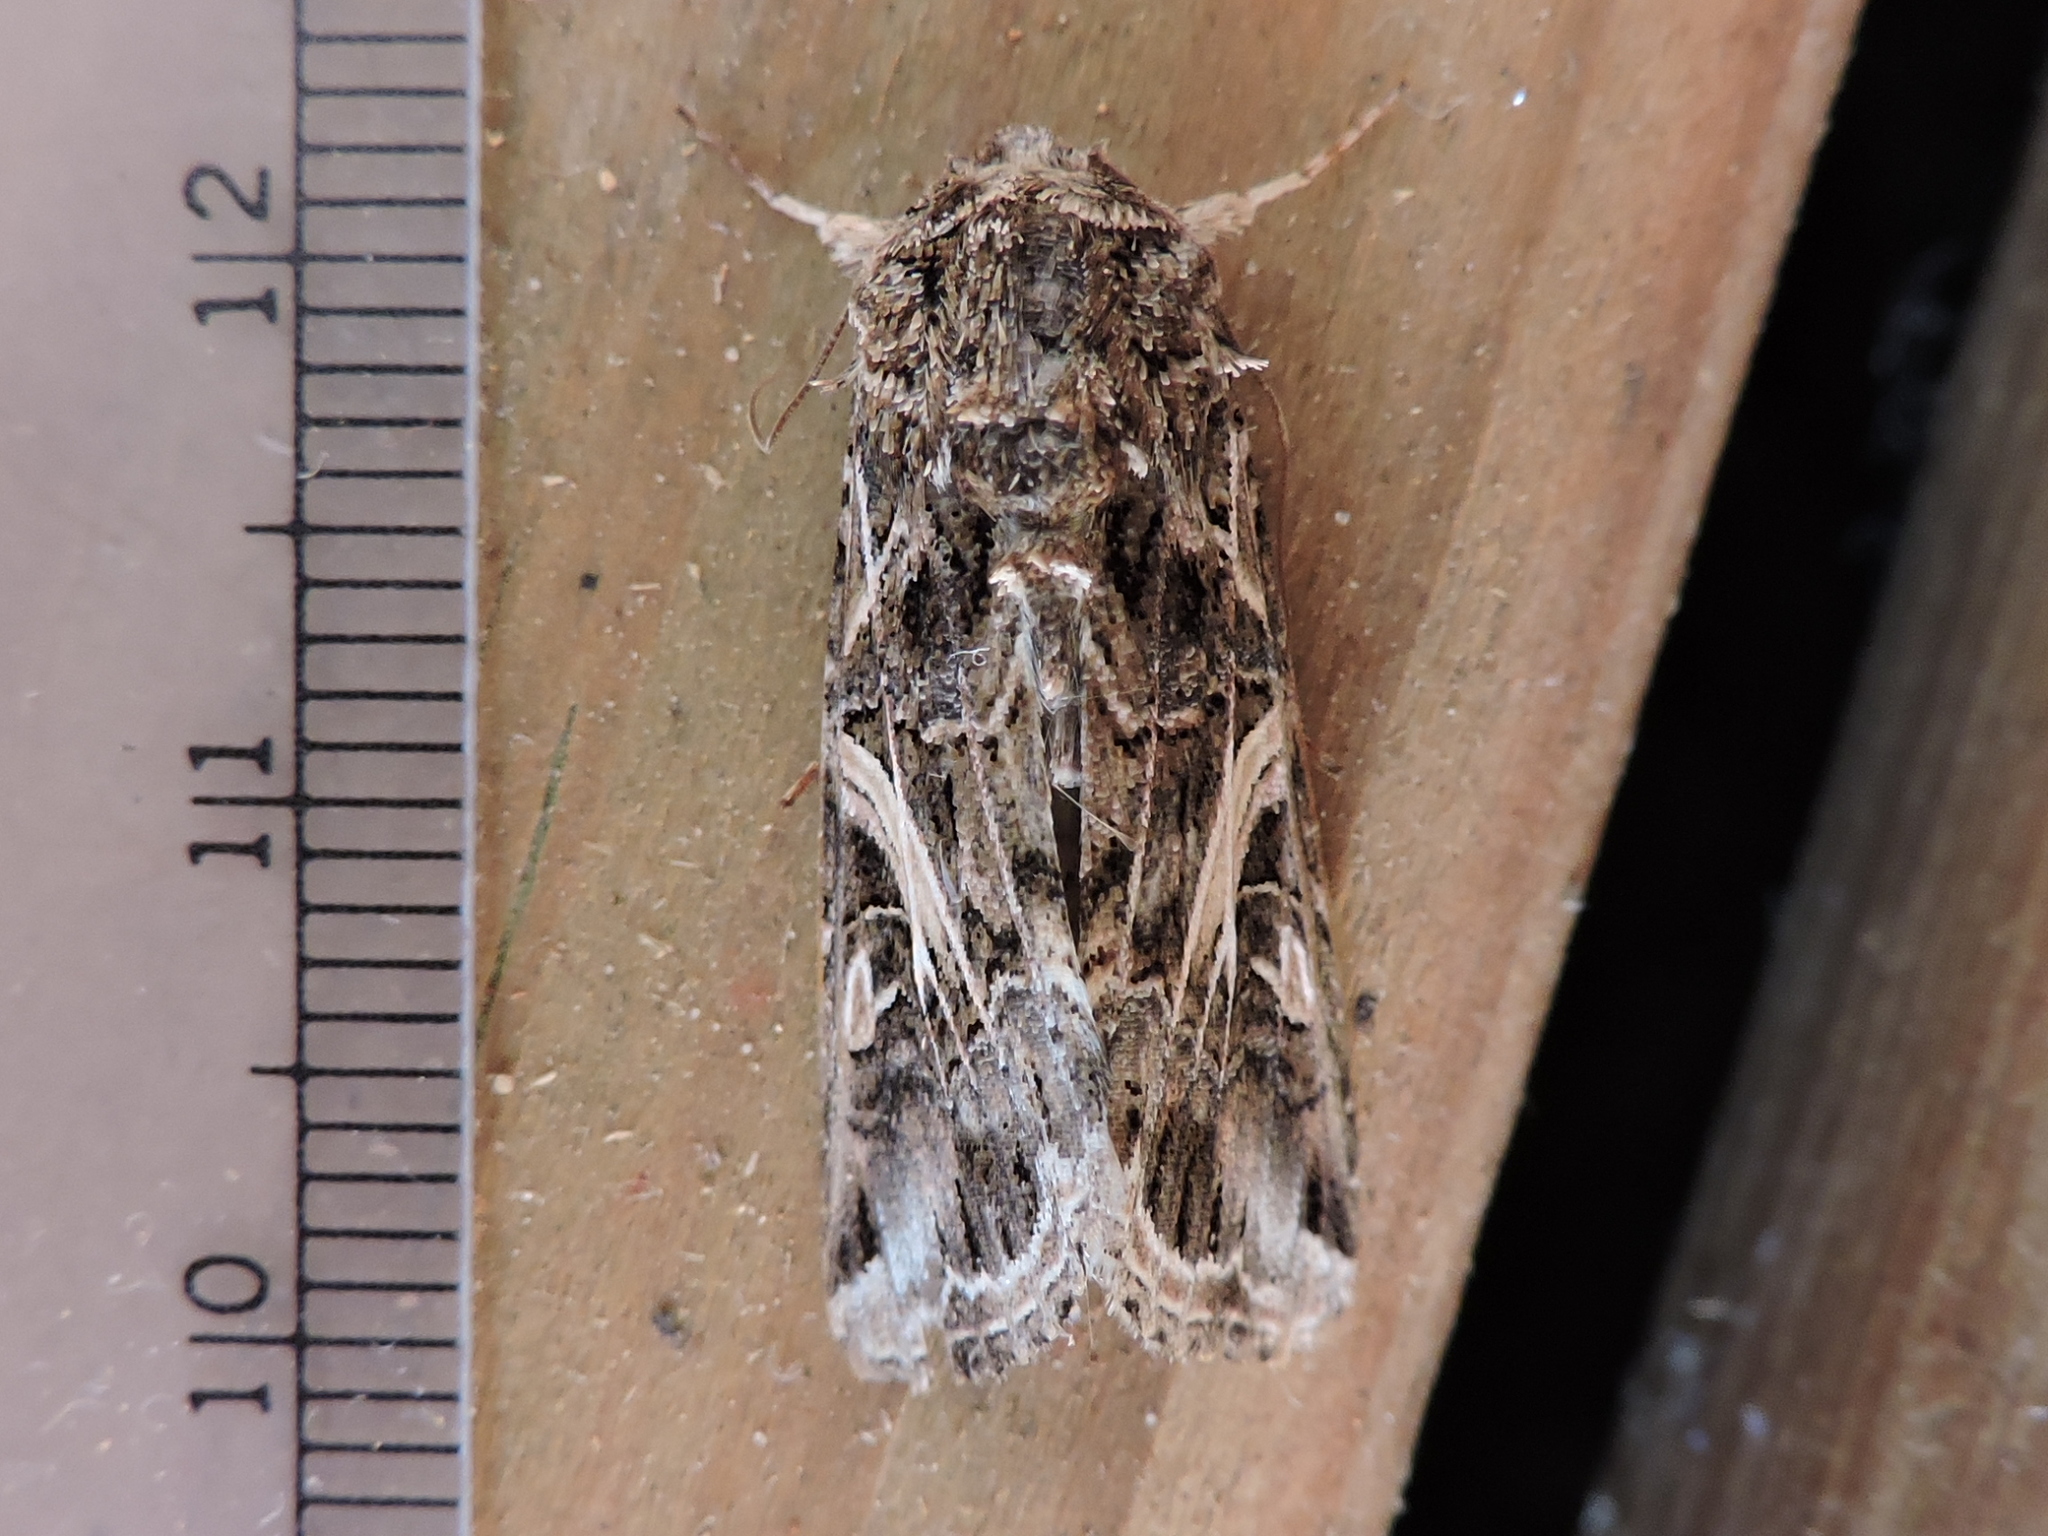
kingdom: Animalia
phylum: Arthropoda
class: Insecta
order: Lepidoptera
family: Noctuidae
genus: Spodoptera
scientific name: Spodoptera ornithogalli
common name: Yellow-striped armyworm
